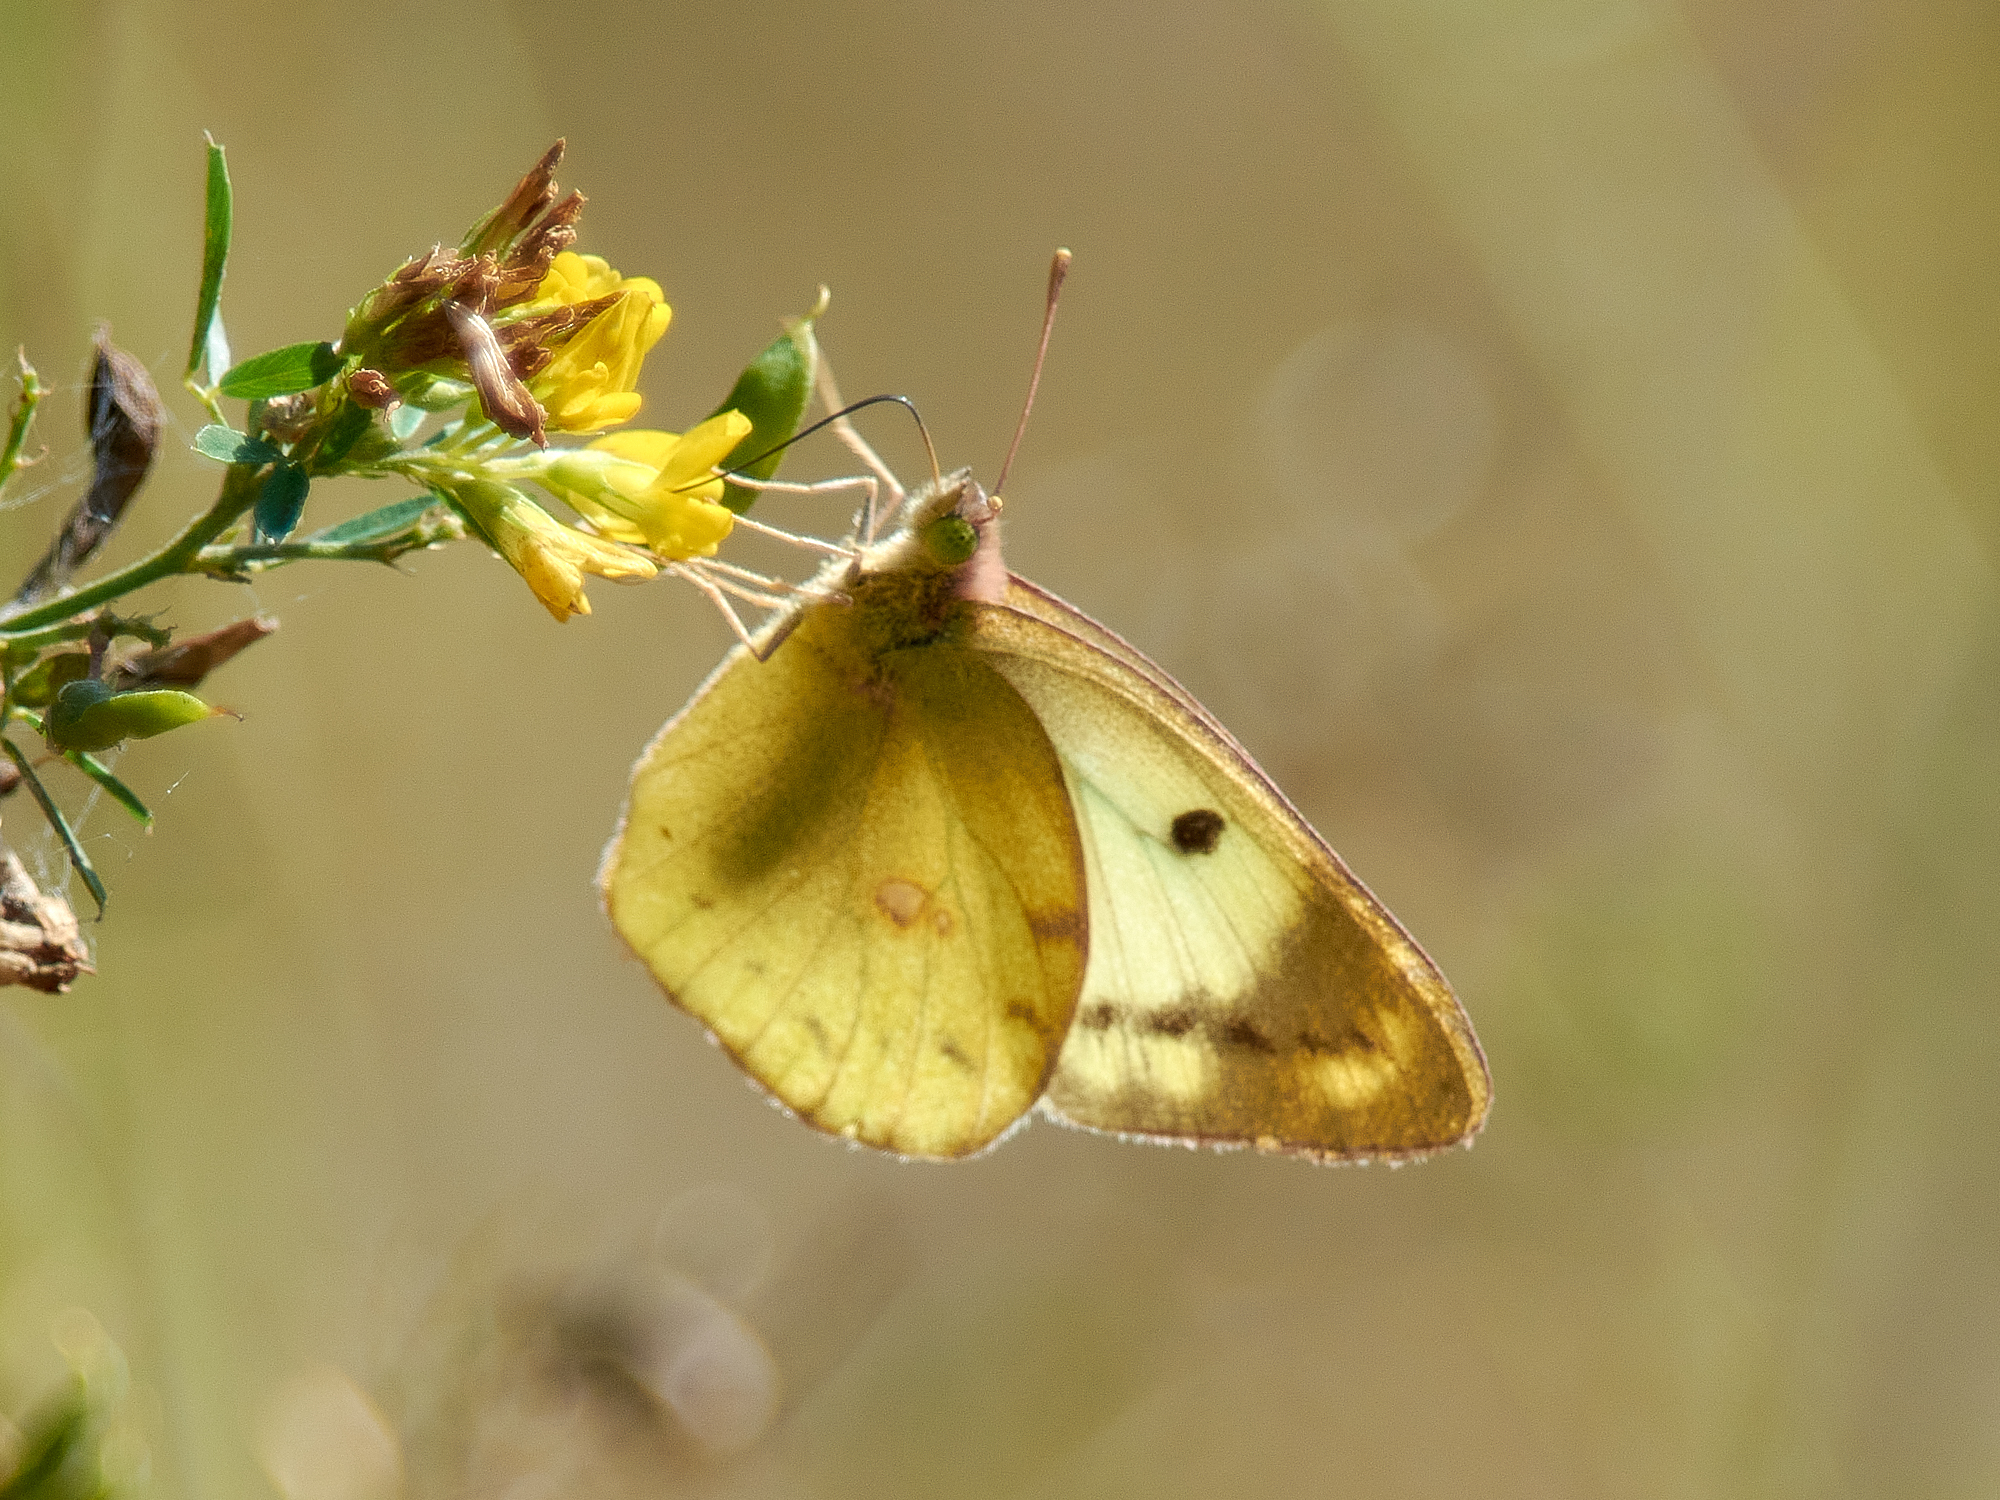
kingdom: Animalia
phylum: Arthropoda
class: Insecta
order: Lepidoptera
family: Pieridae
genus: Colias
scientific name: Colias hyale
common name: Pale clouded yellow
